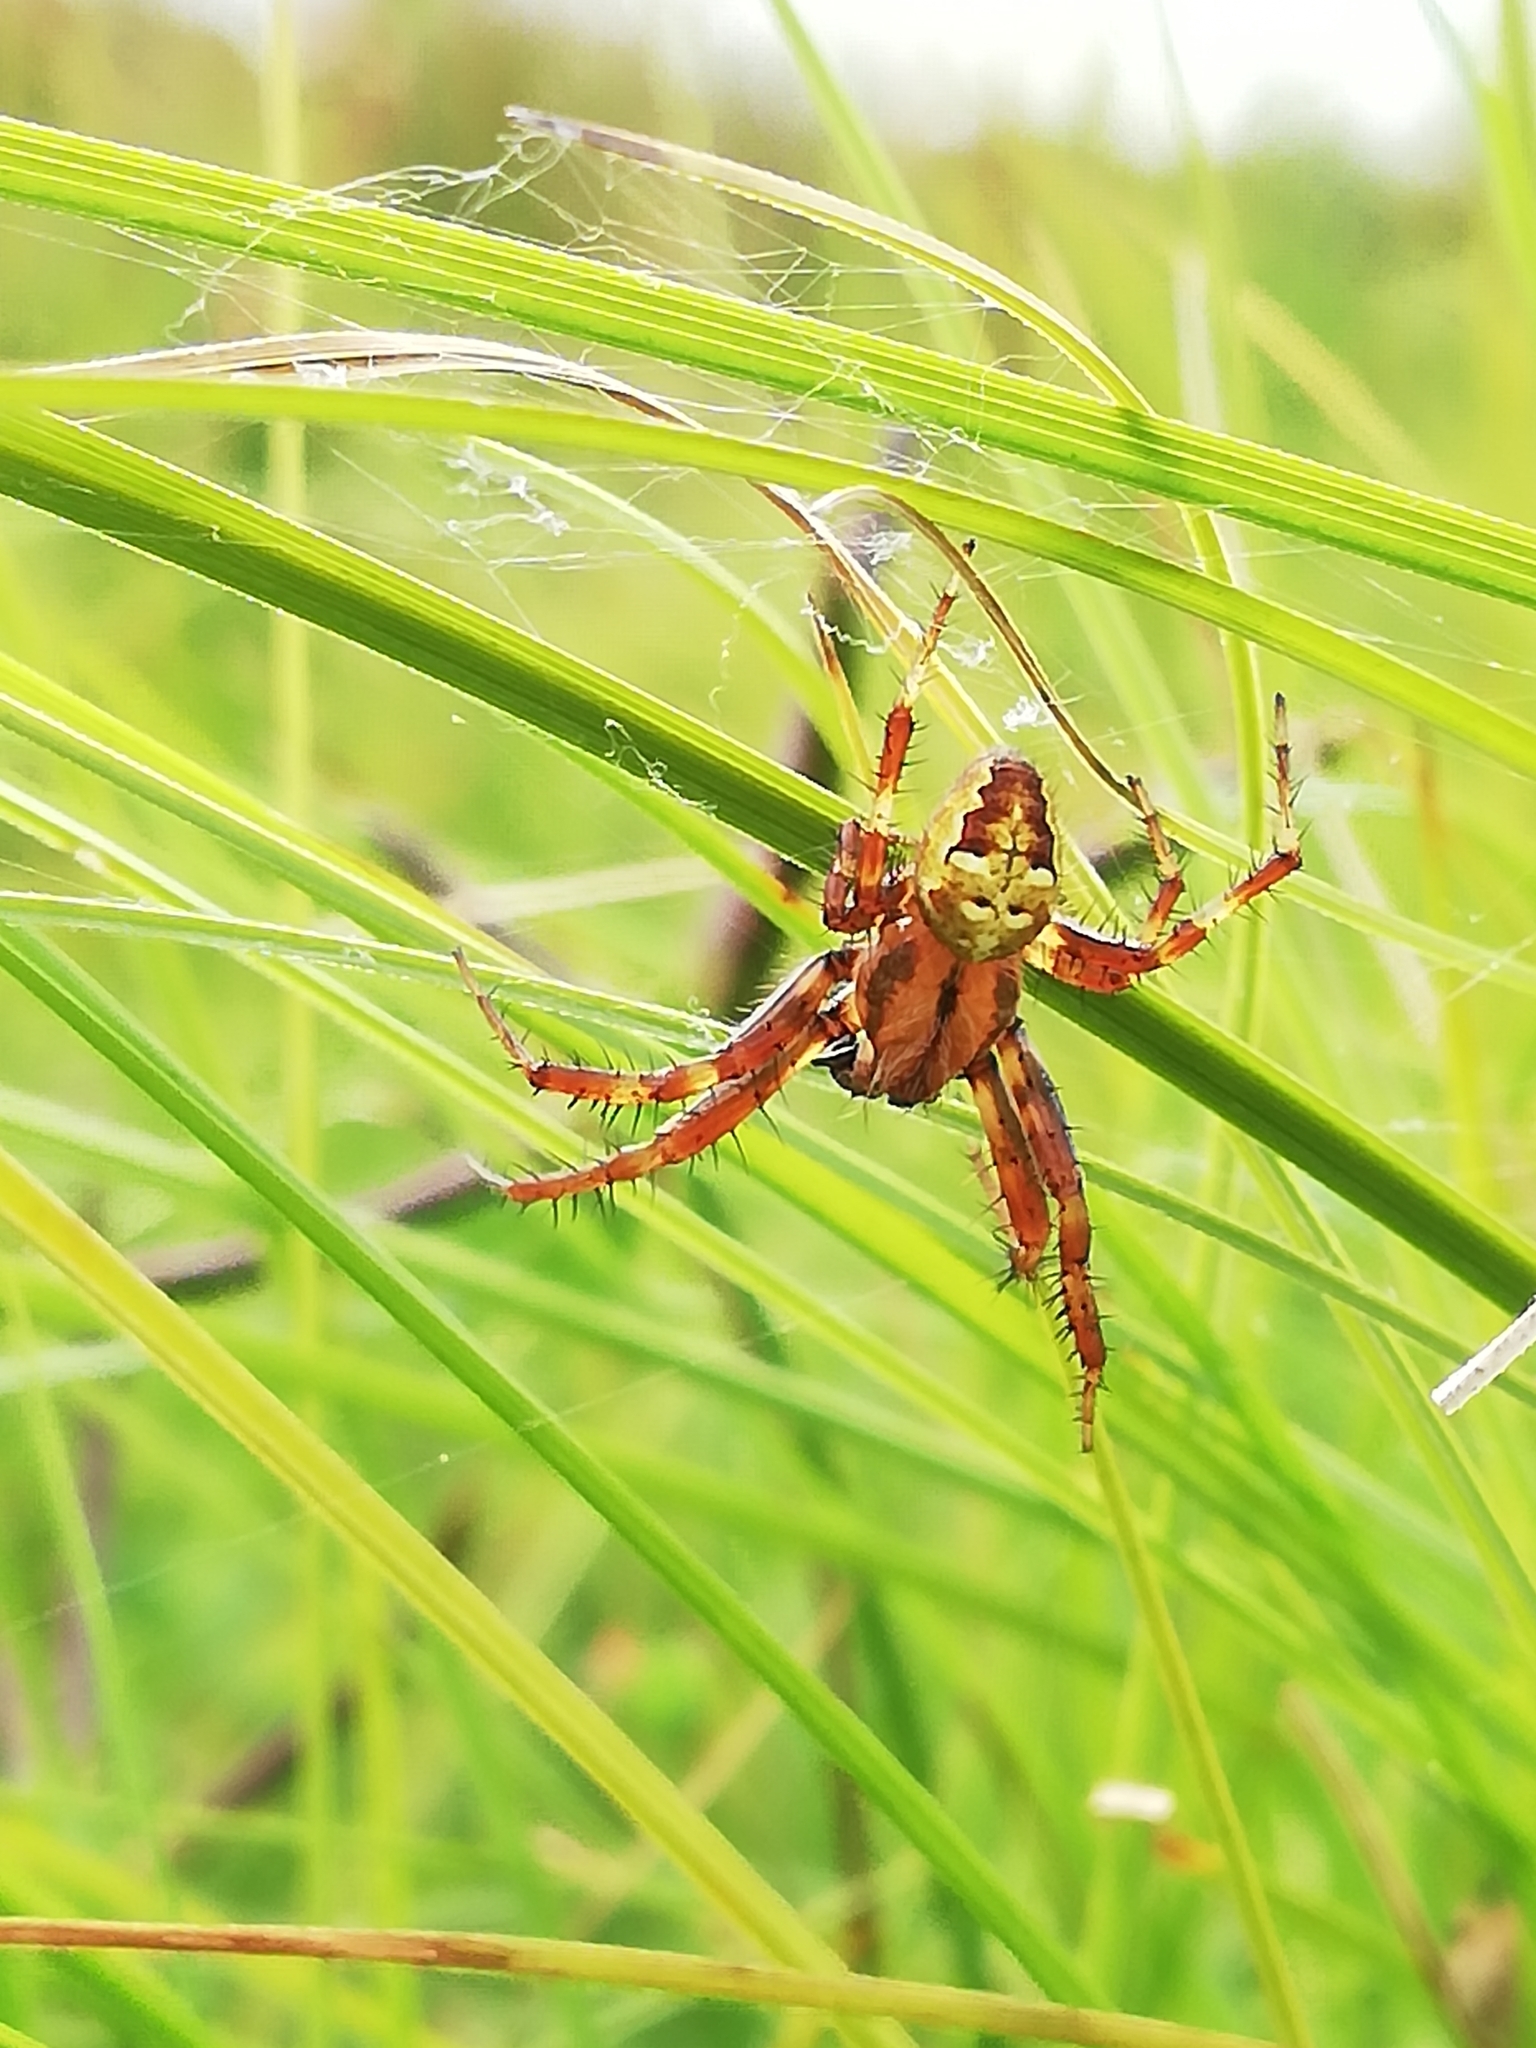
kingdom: Animalia
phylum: Arthropoda
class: Arachnida
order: Araneae
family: Araneidae
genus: Araneus
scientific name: Araneus quadratus
